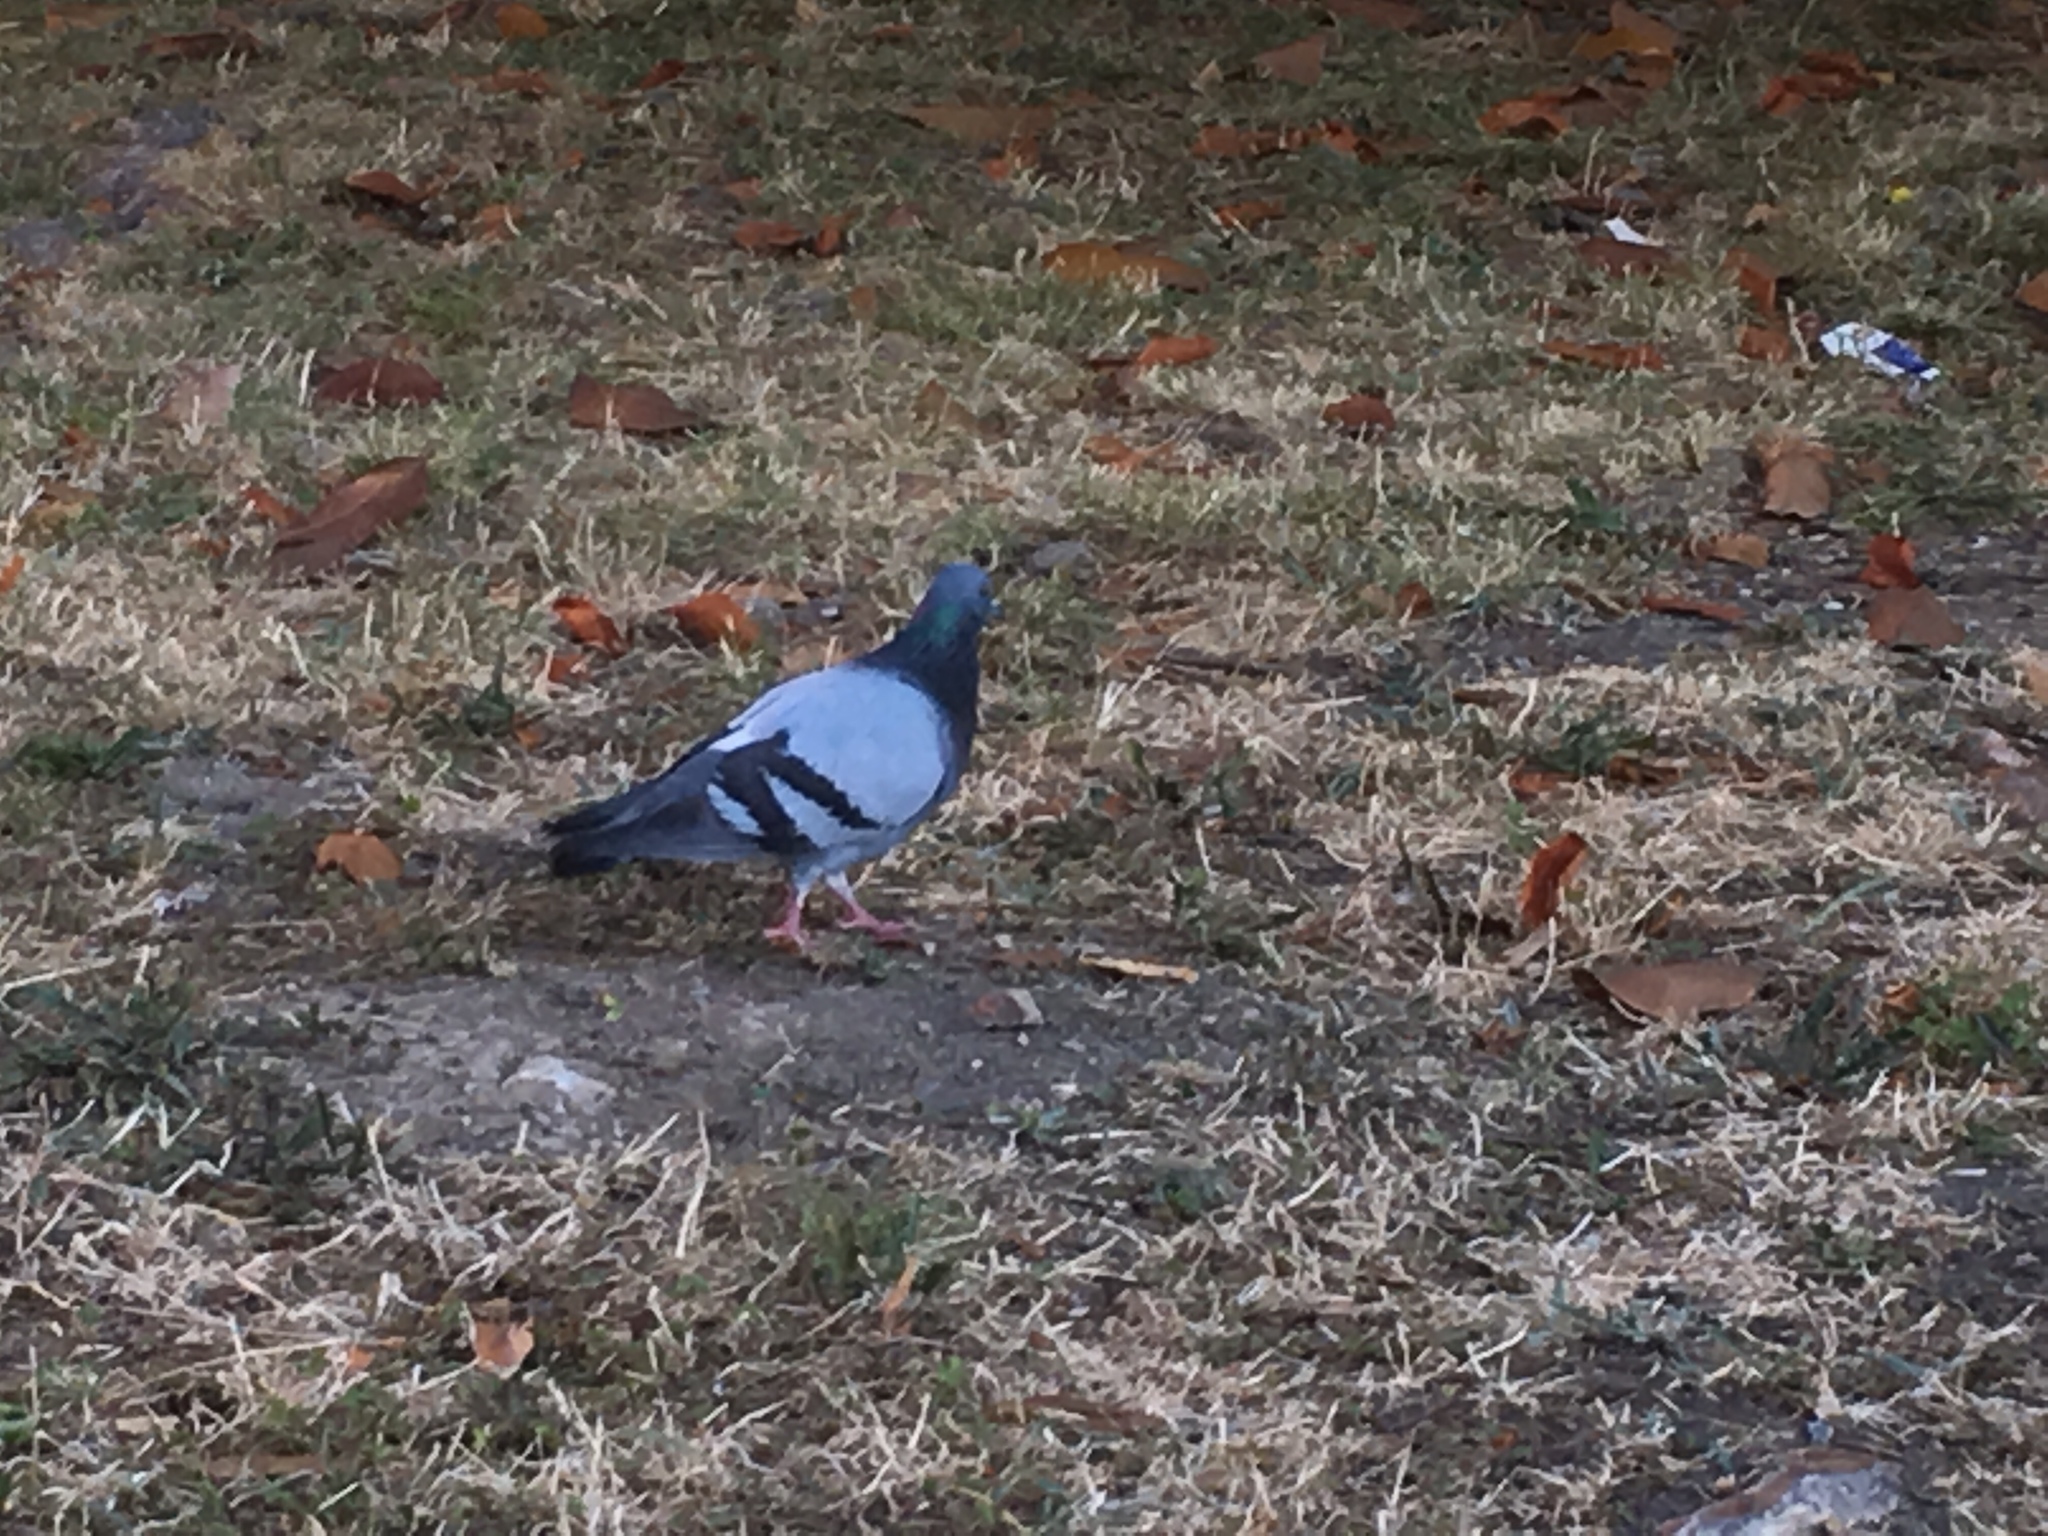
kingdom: Animalia
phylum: Chordata
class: Aves
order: Columbiformes
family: Columbidae
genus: Columba
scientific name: Columba livia
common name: Rock pigeon
